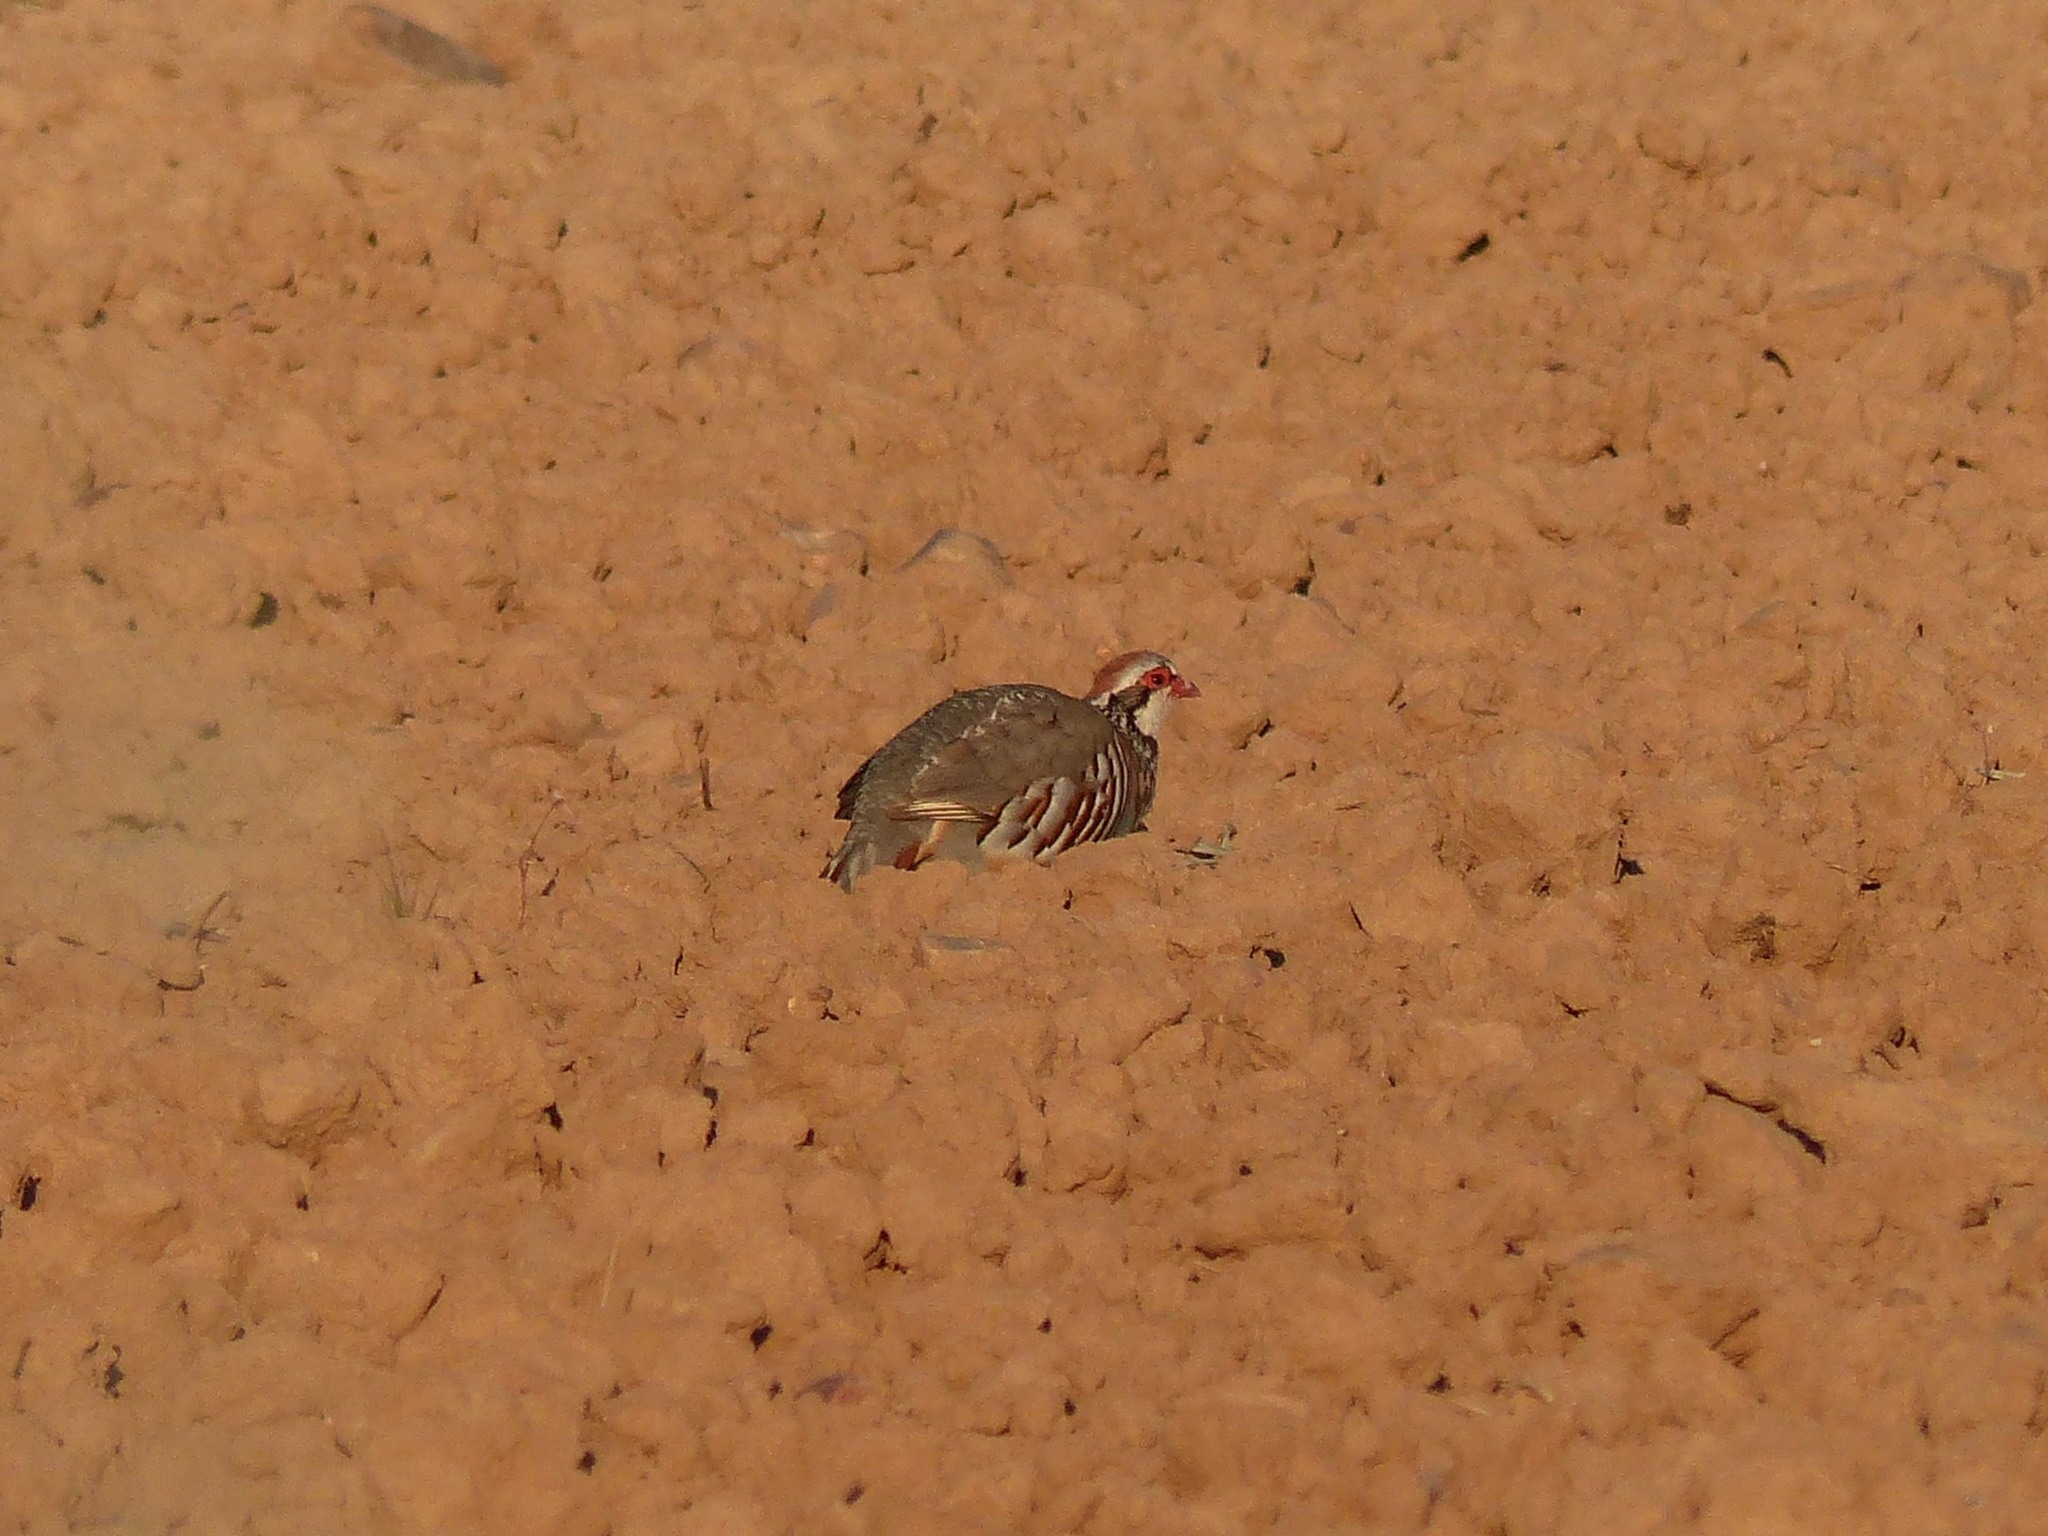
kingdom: Animalia
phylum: Chordata
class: Aves
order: Galliformes
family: Phasianidae
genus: Alectoris
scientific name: Alectoris rufa
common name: Red-legged partridge
